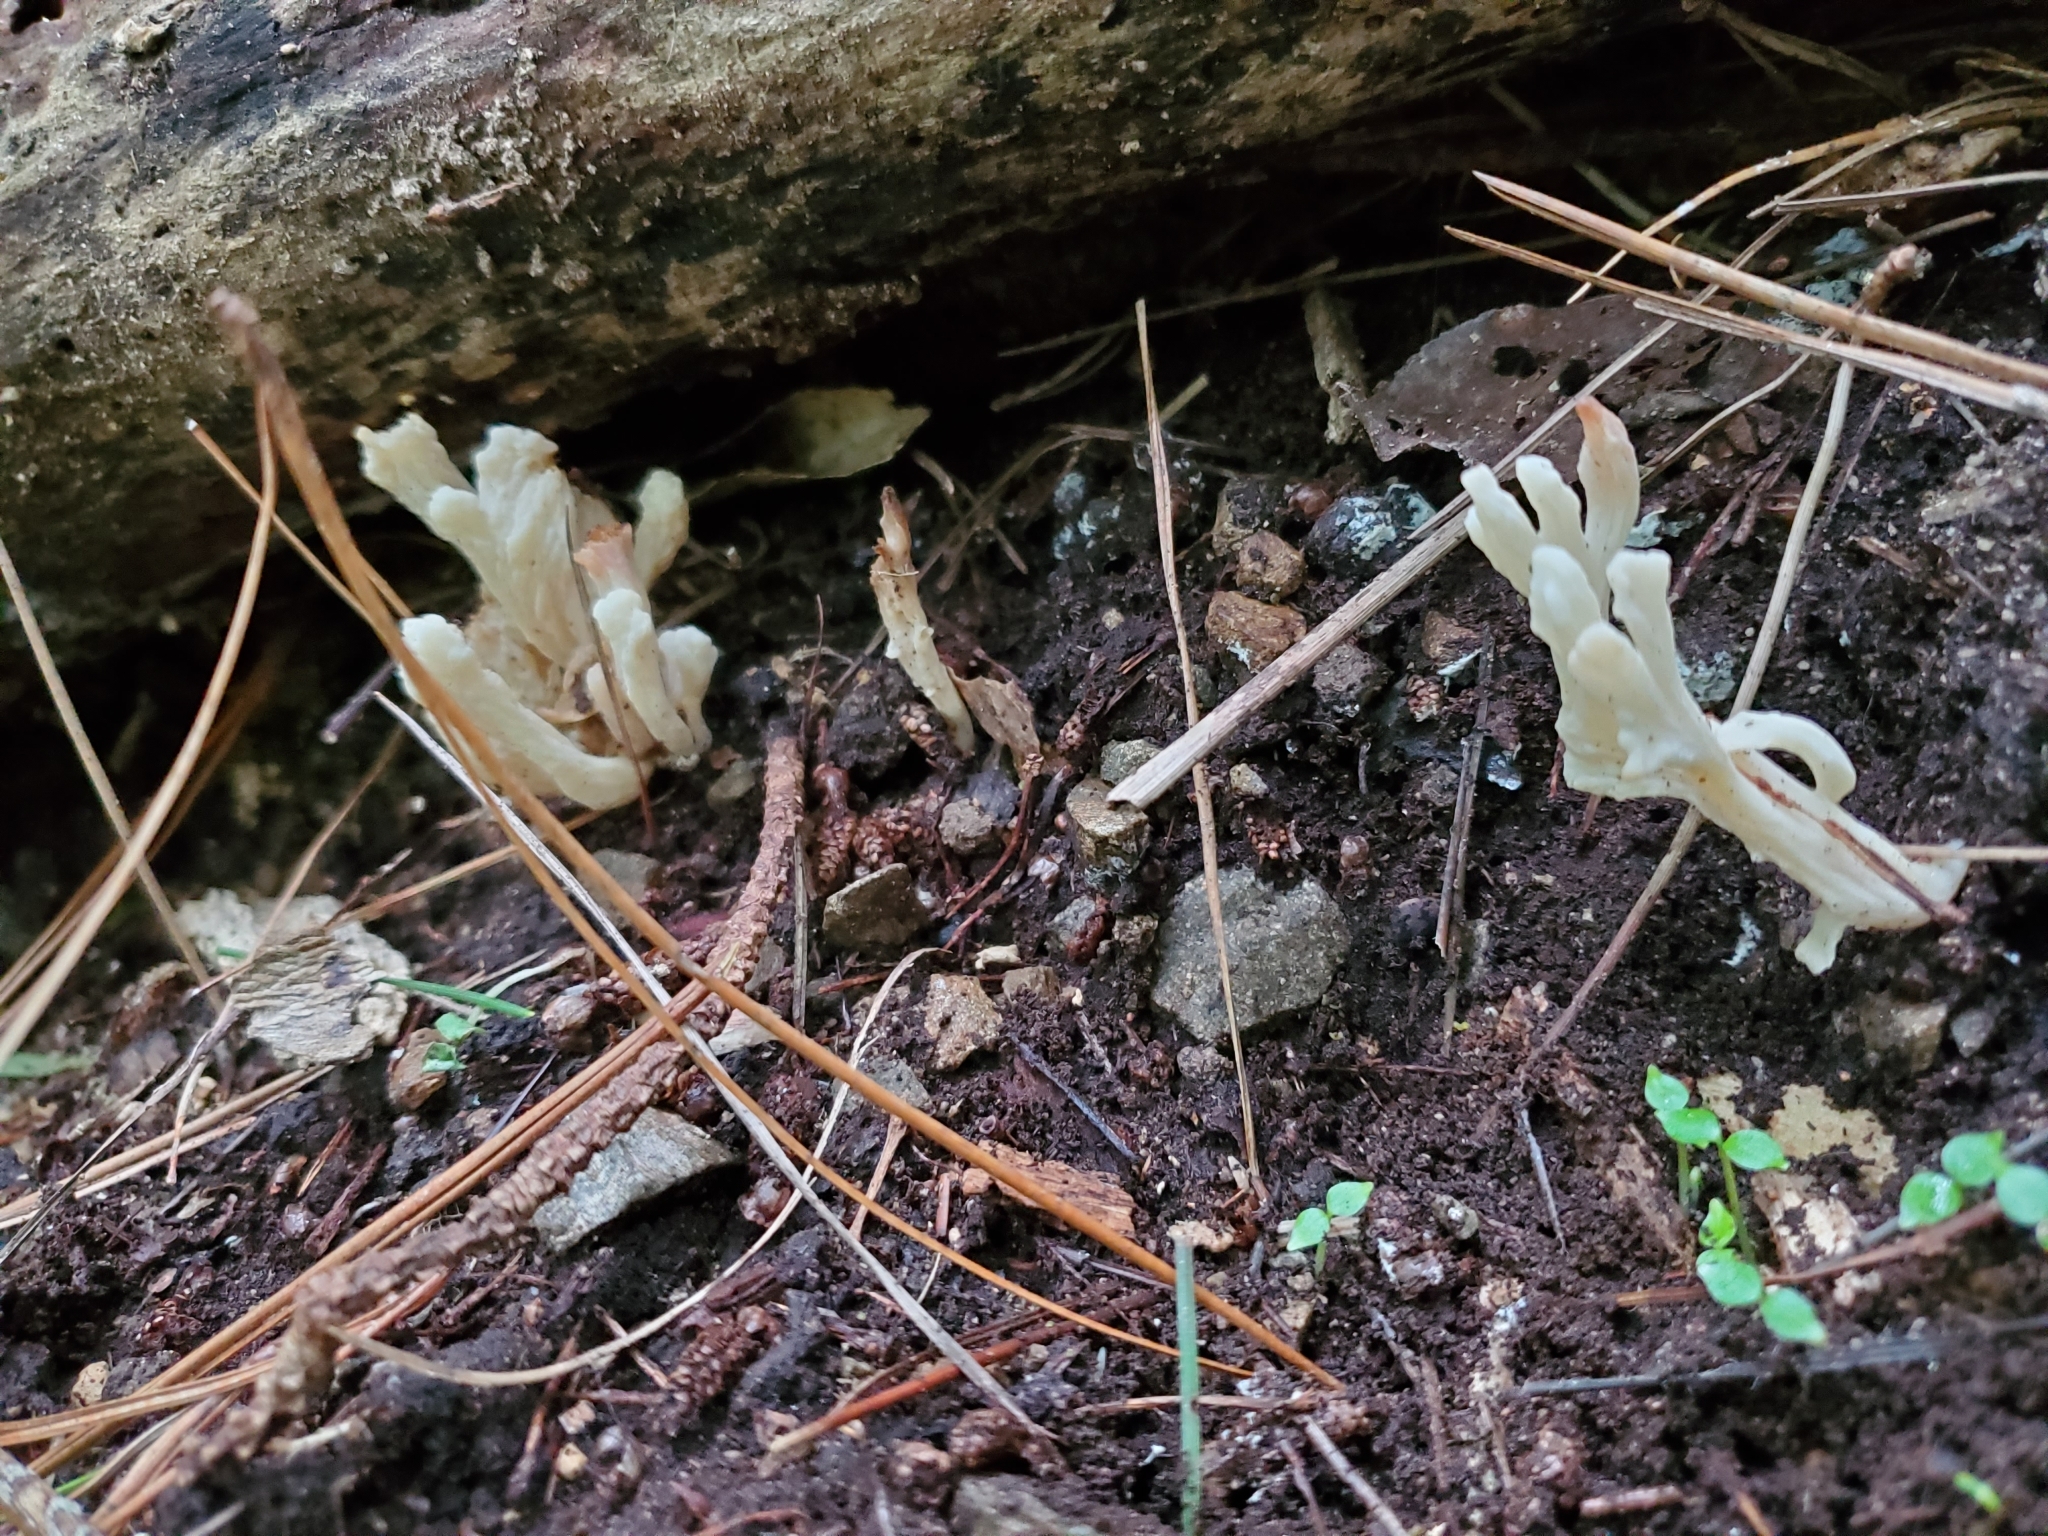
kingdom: Fungi
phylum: Basidiomycota
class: Agaricomycetes
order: Cantharellales
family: Hydnaceae
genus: Clavulina
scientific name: Clavulina rugosa
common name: Wrinkled club
